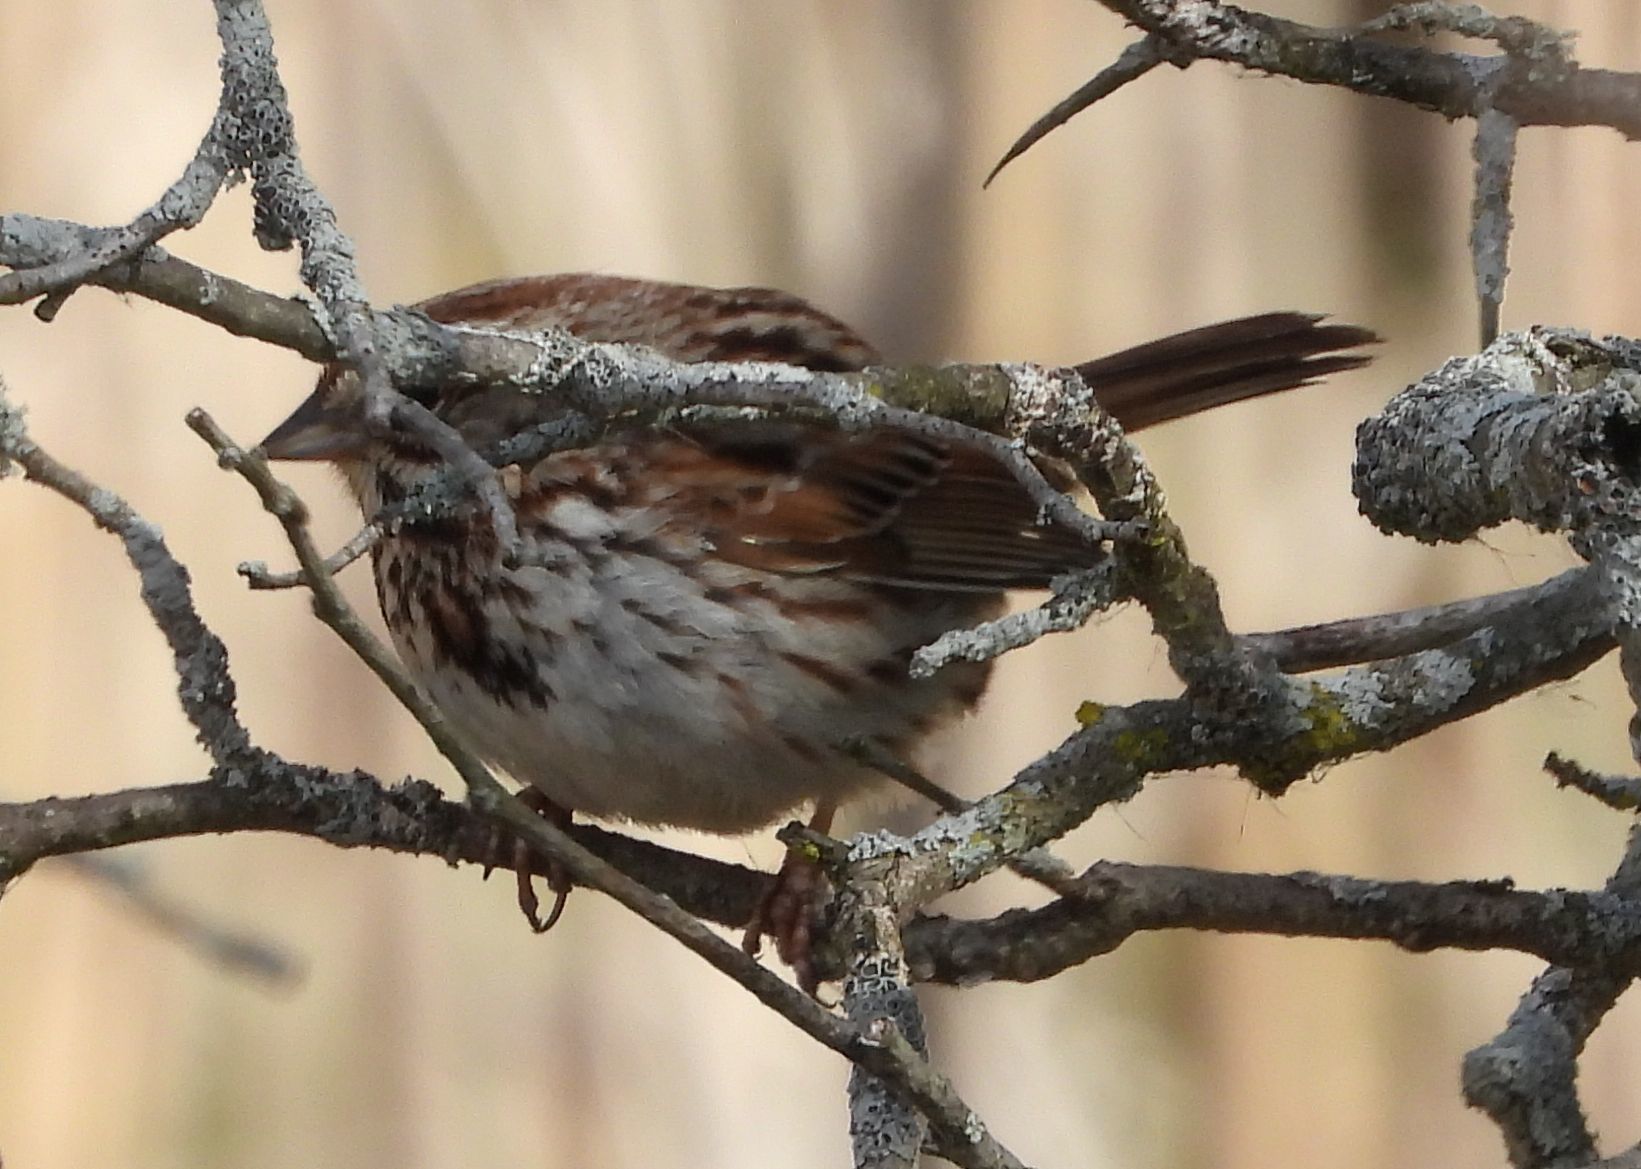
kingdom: Animalia
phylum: Chordata
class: Aves
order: Passeriformes
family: Passerellidae
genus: Melospiza
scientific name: Melospiza melodia
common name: Song sparrow
